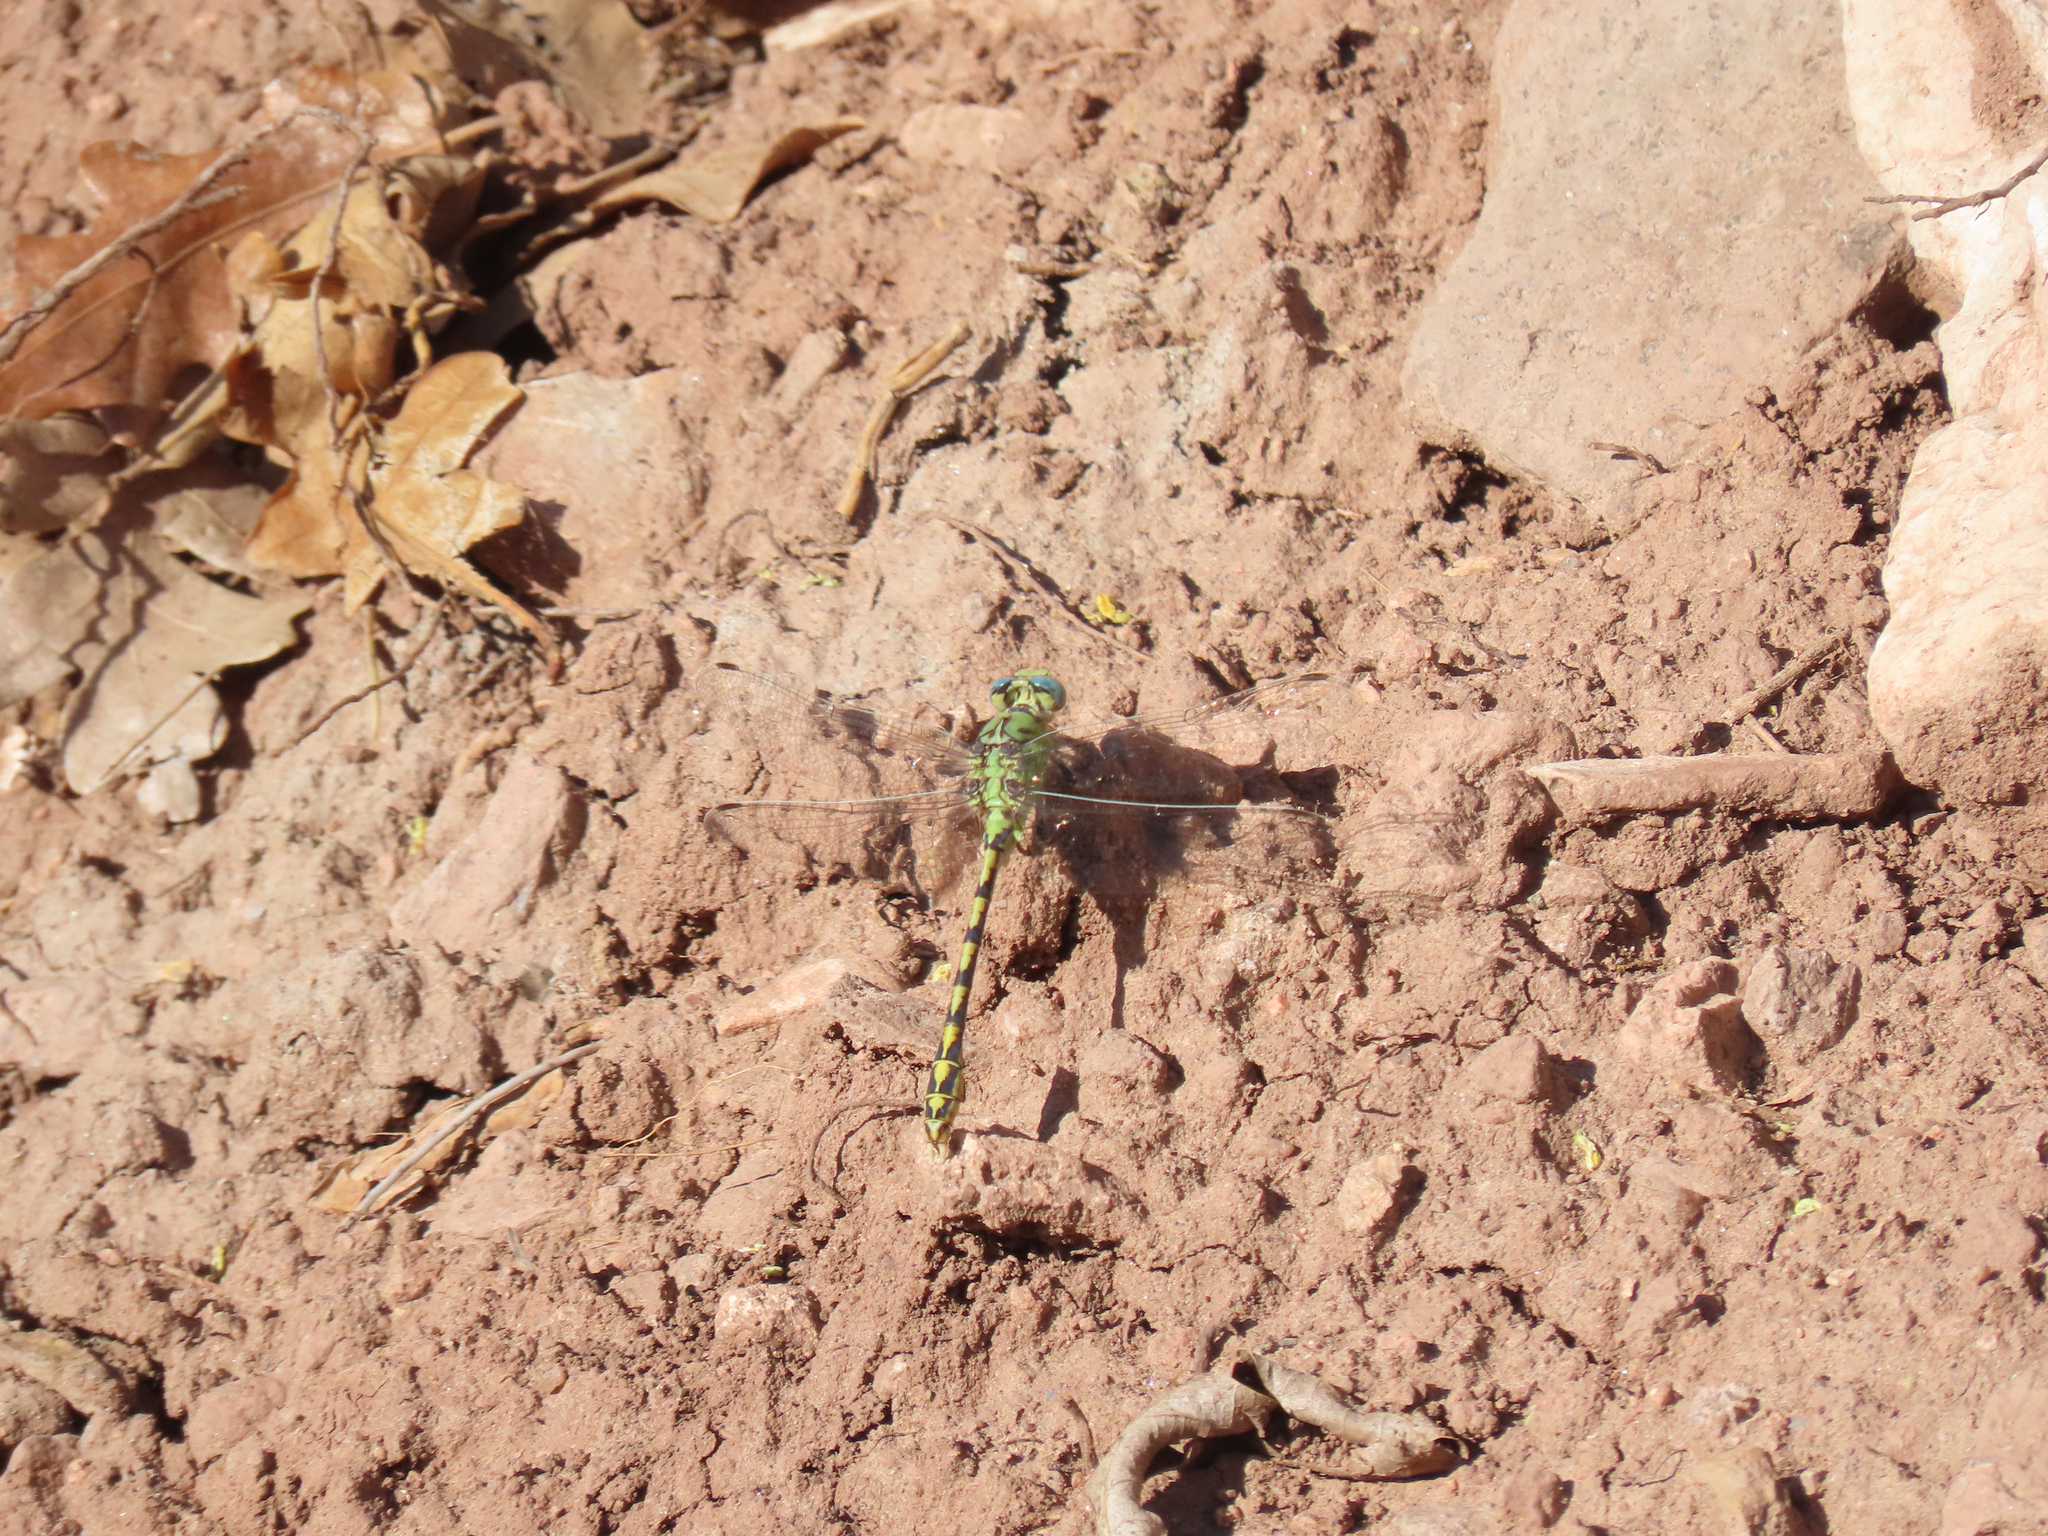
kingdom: Animalia
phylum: Arthropoda
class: Insecta
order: Odonata
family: Gomphidae
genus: Ophiogomphus
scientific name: Ophiogomphus severus
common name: Pale snaketail
